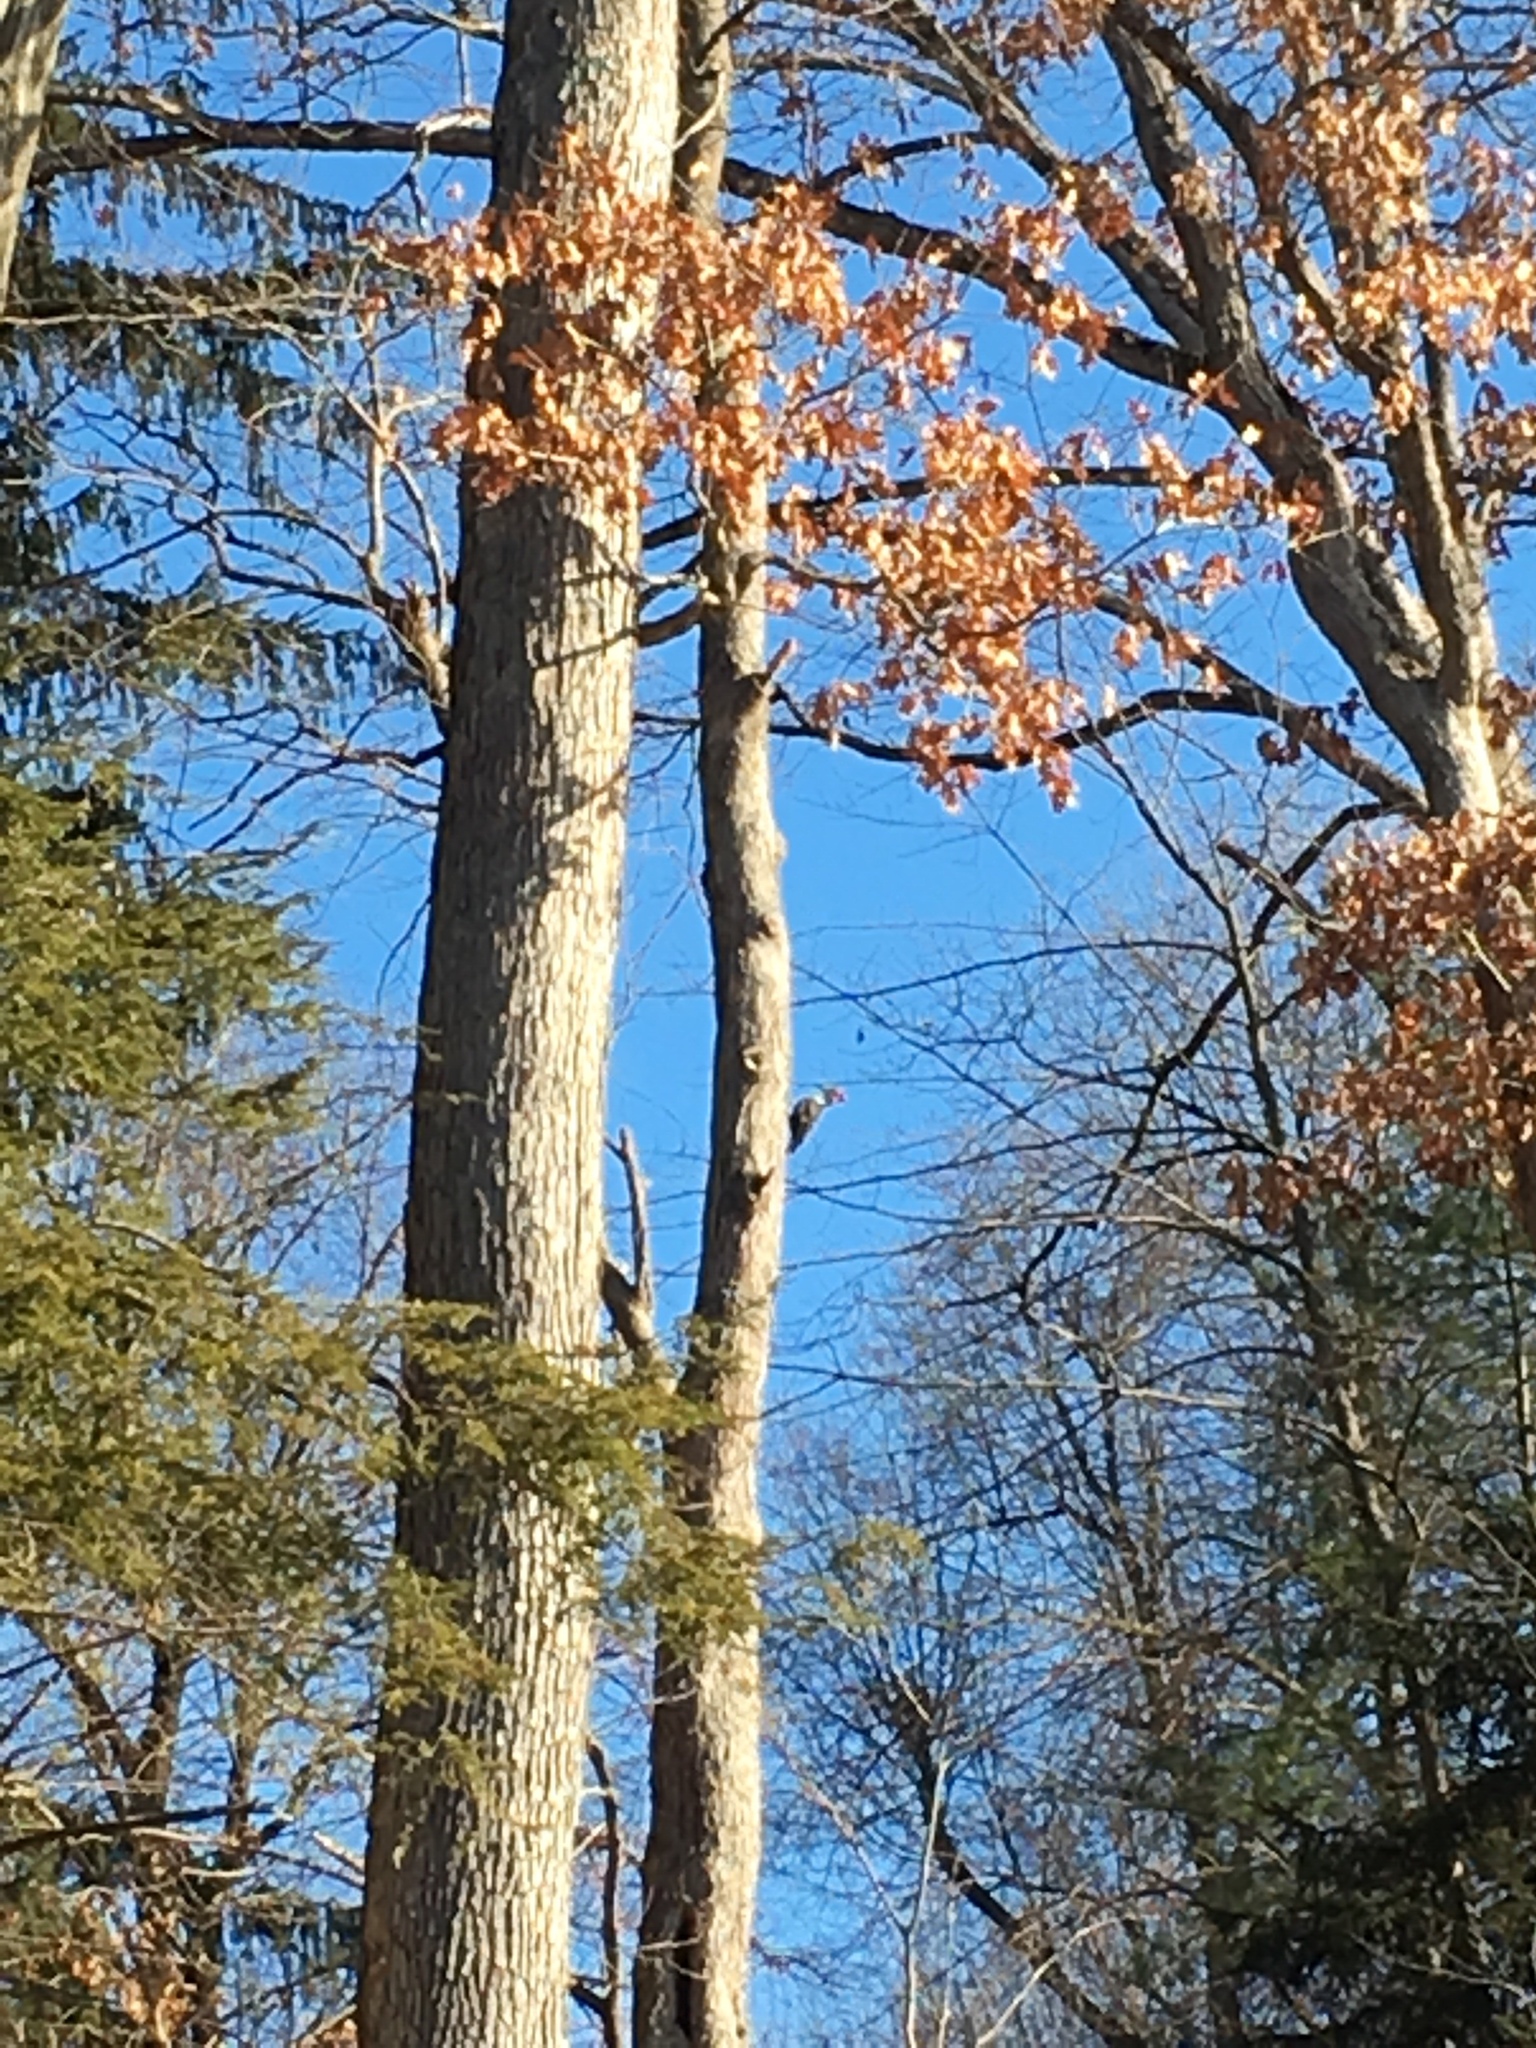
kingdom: Animalia
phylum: Chordata
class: Aves
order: Piciformes
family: Picidae
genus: Dryocopus
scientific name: Dryocopus pileatus
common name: Pileated woodpecker
